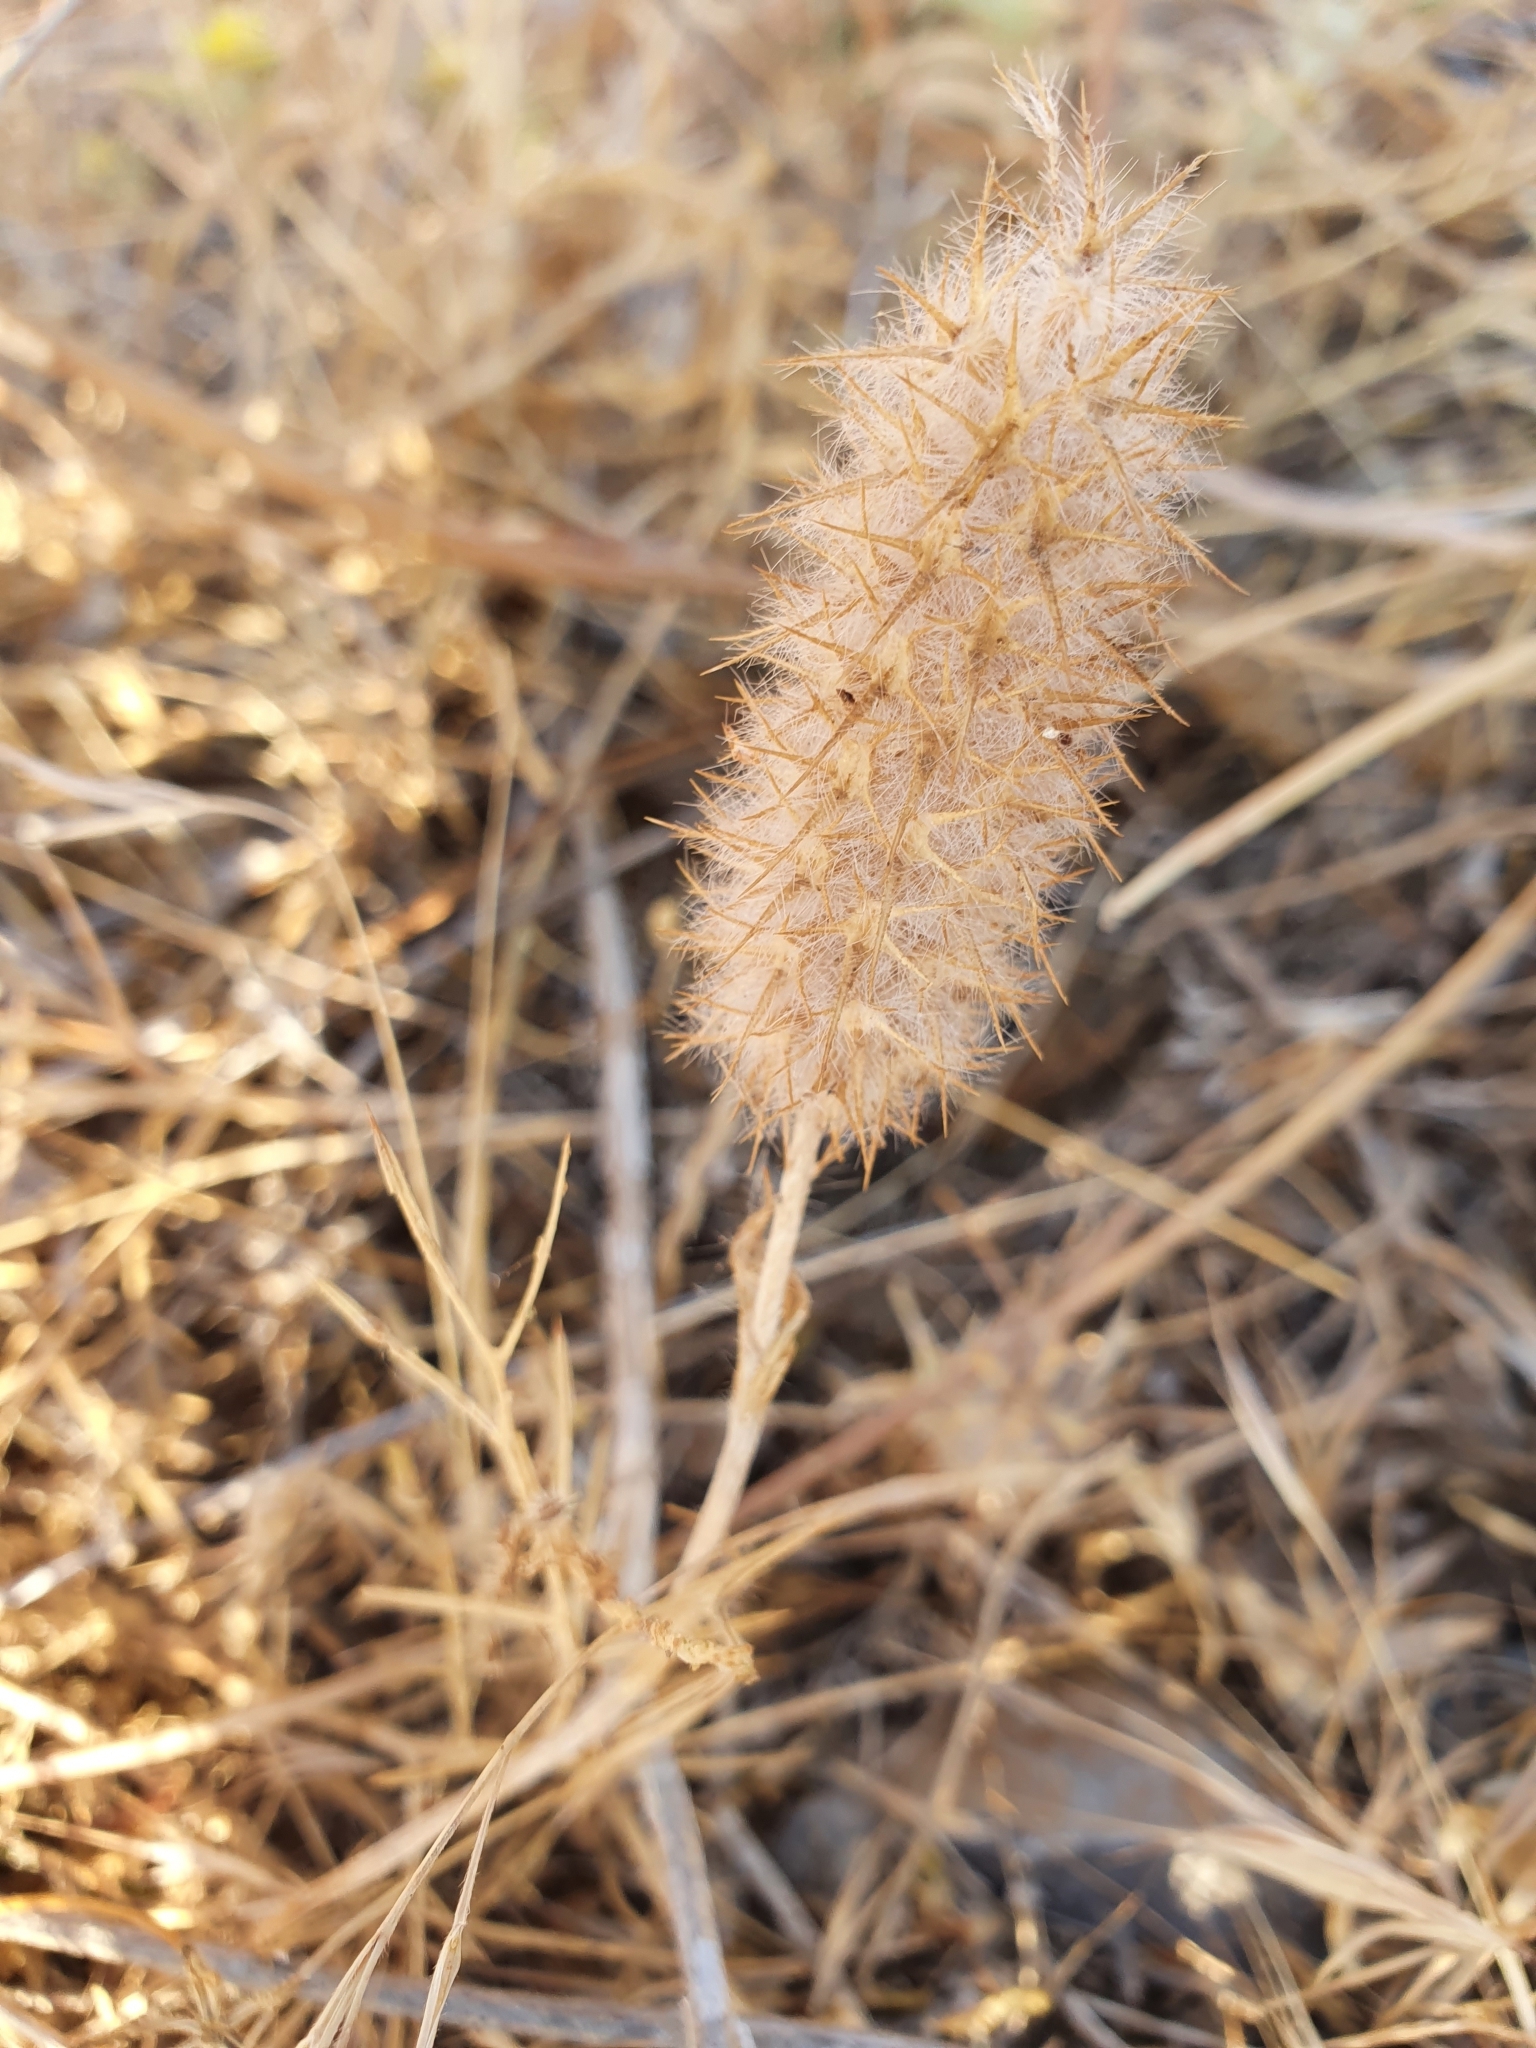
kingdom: Plantae
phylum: Tracheophyta
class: Magnoliopsida
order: Fabales
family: Fabaceae
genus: Trifolium
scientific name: Trifolium angustifolium
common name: Narrow clover
